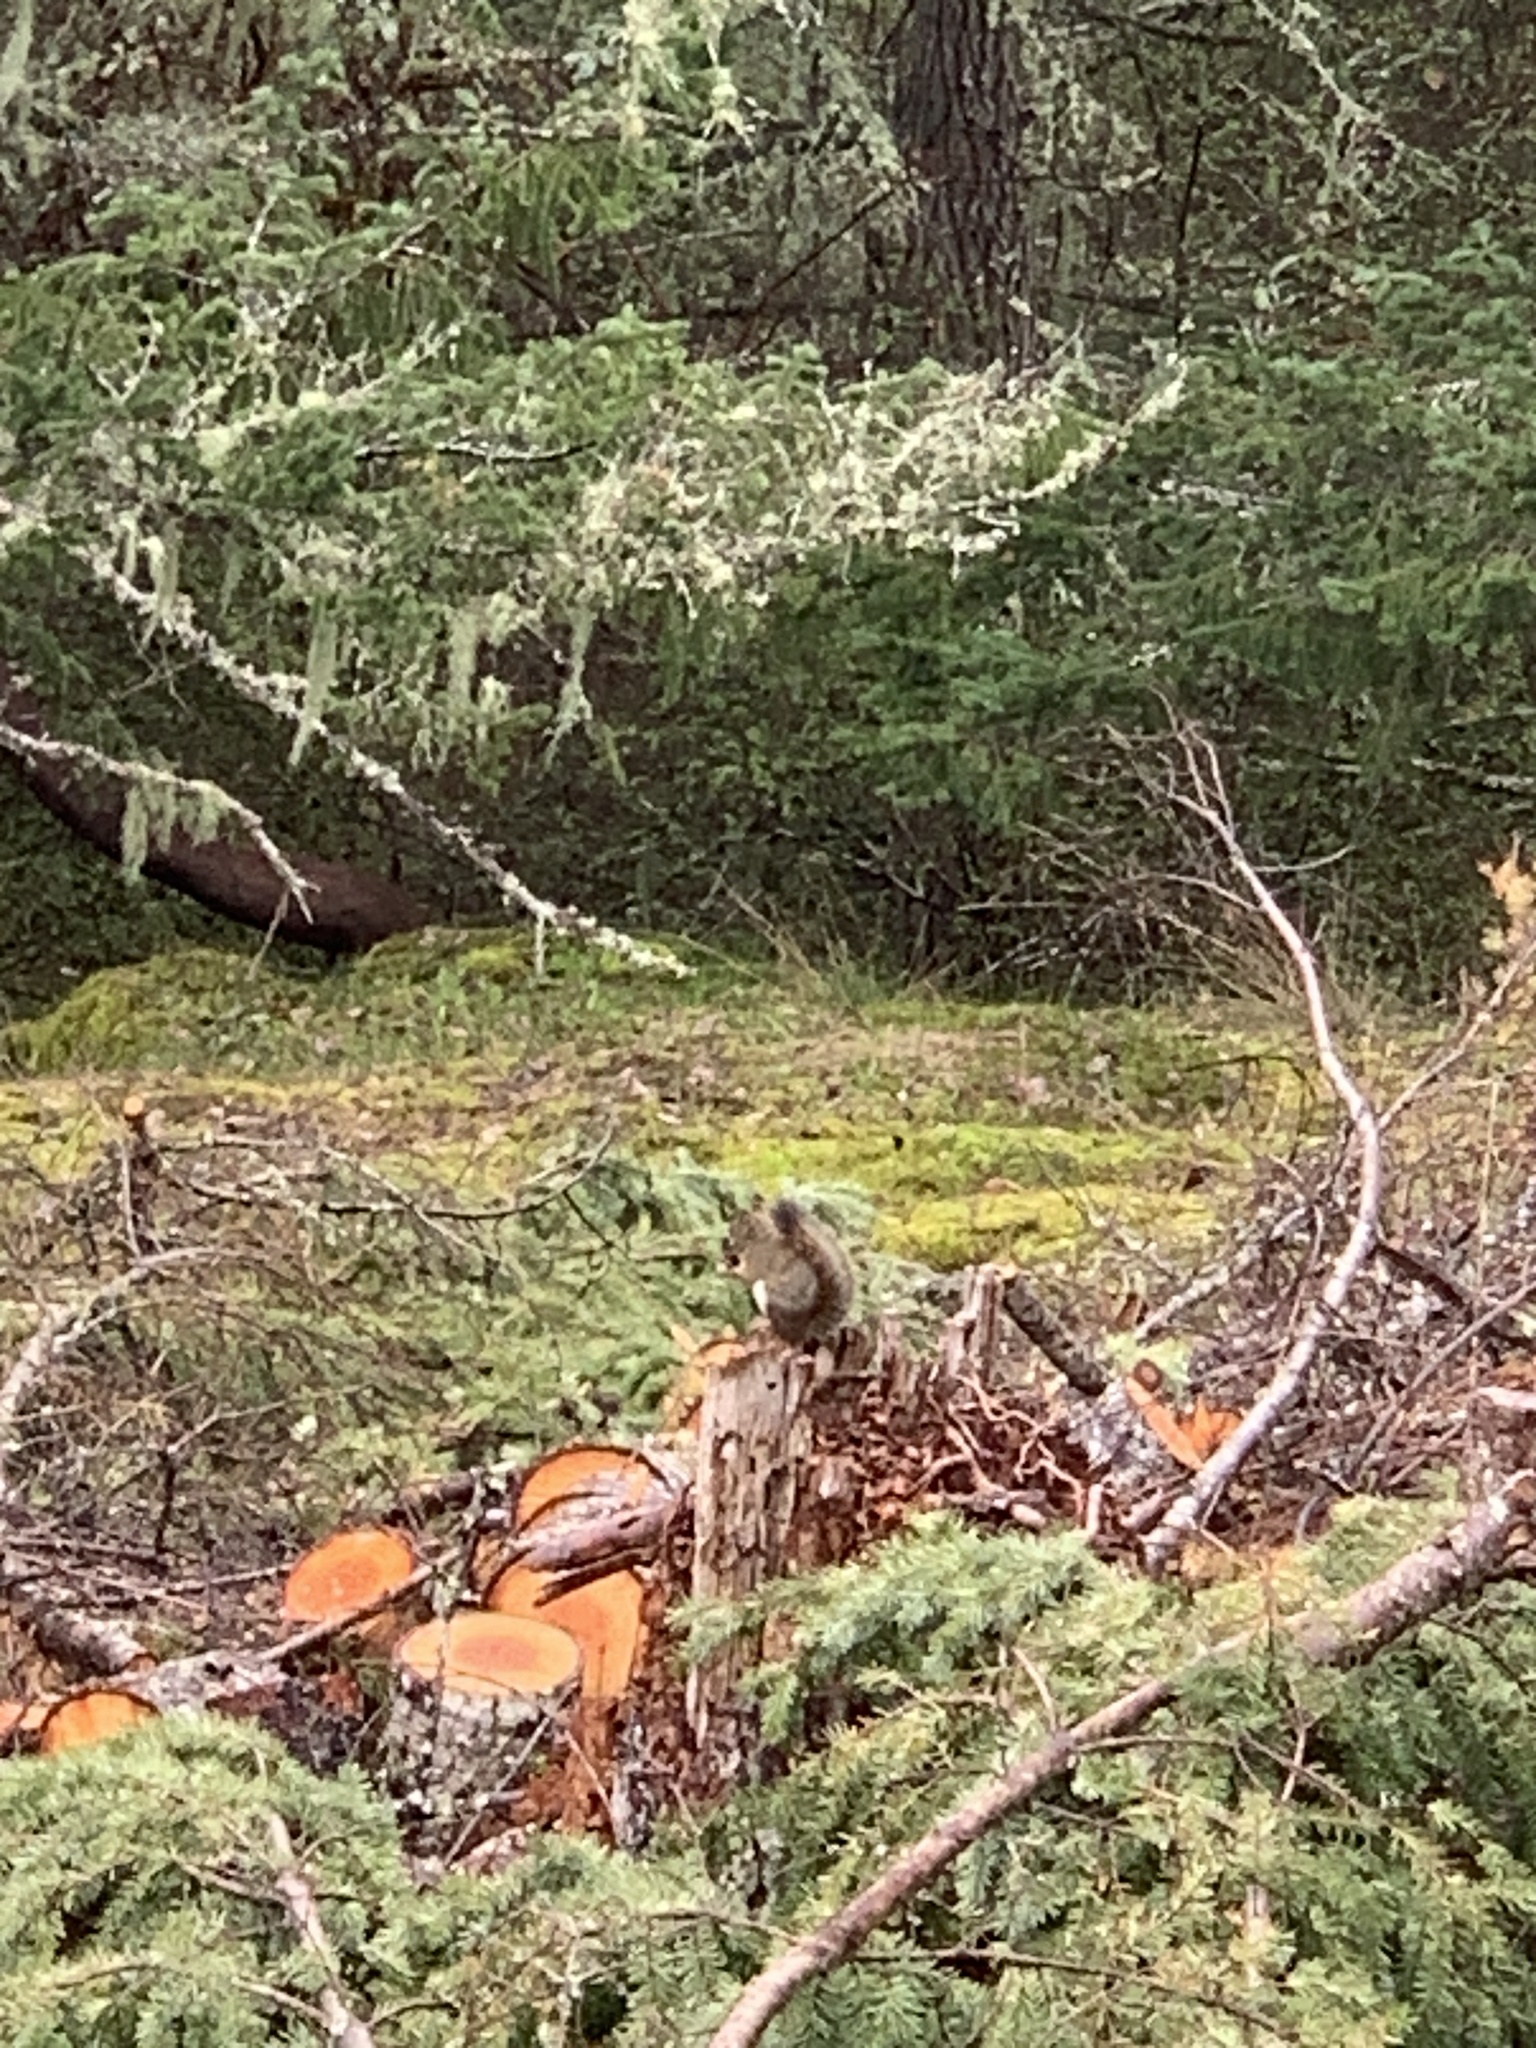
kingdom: Animalia
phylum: Chordata
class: Mammalia
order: Rodentia
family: Sciuridae
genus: Tamiasciurus
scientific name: Tamiasciurus hudsonicus
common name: Red squirrel
